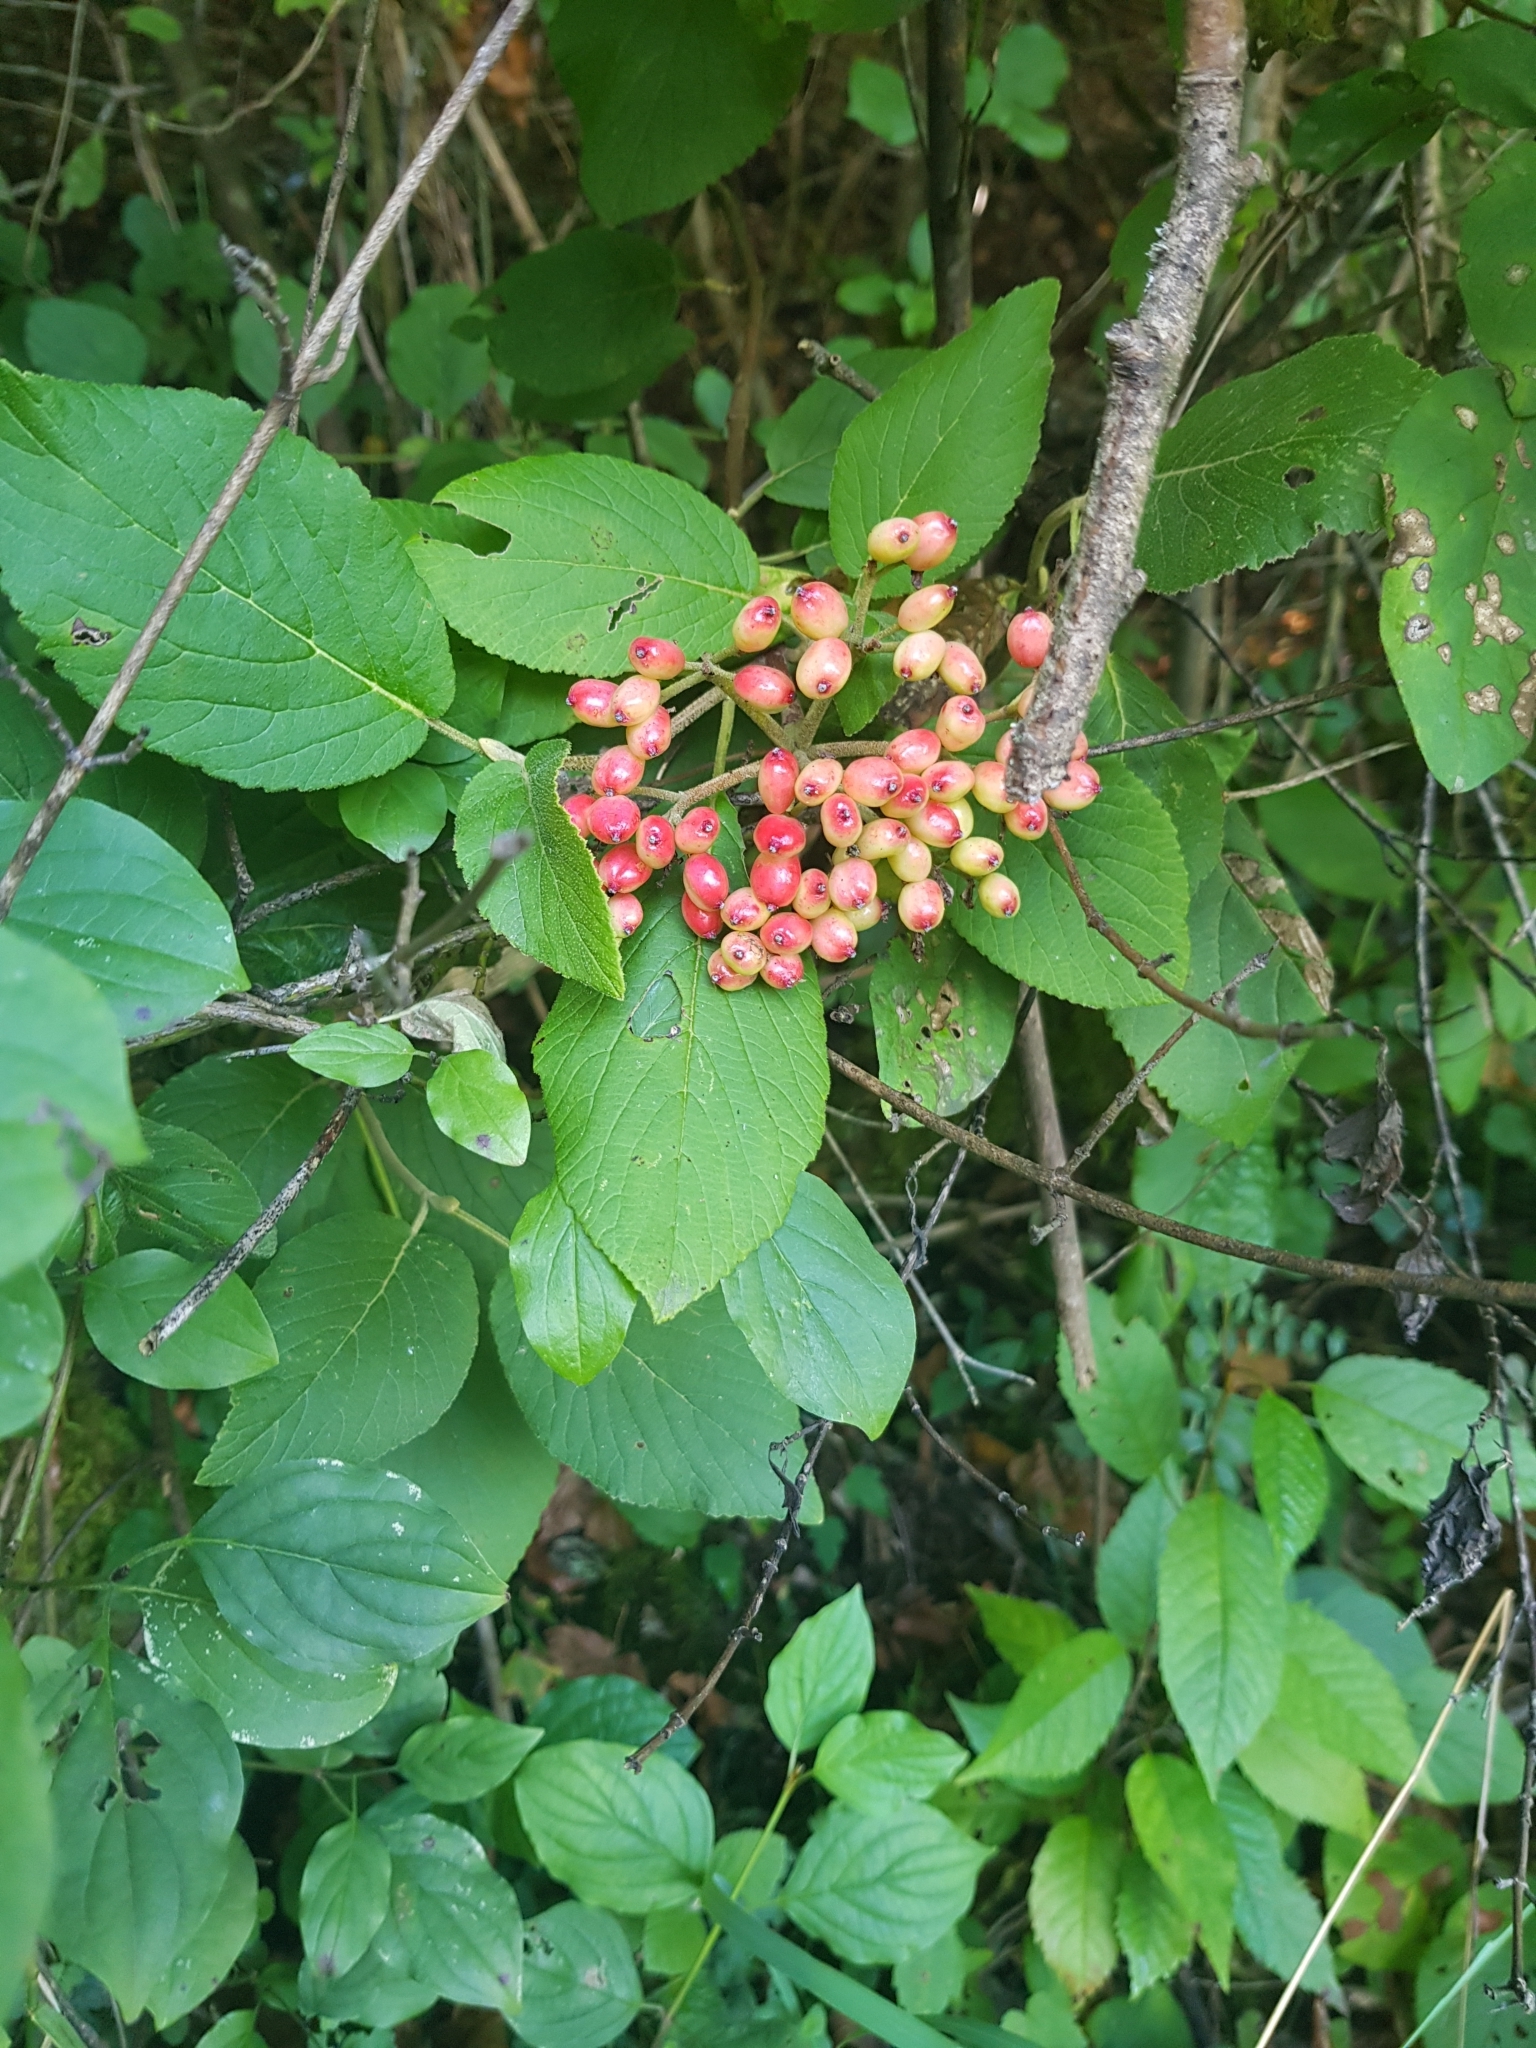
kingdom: Plantae
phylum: Tracheophyta
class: Magnoliopsida
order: Dipsacales
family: Viburnaceae
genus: Viburnum
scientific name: Viburnum lantana
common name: Wayfaring tree
